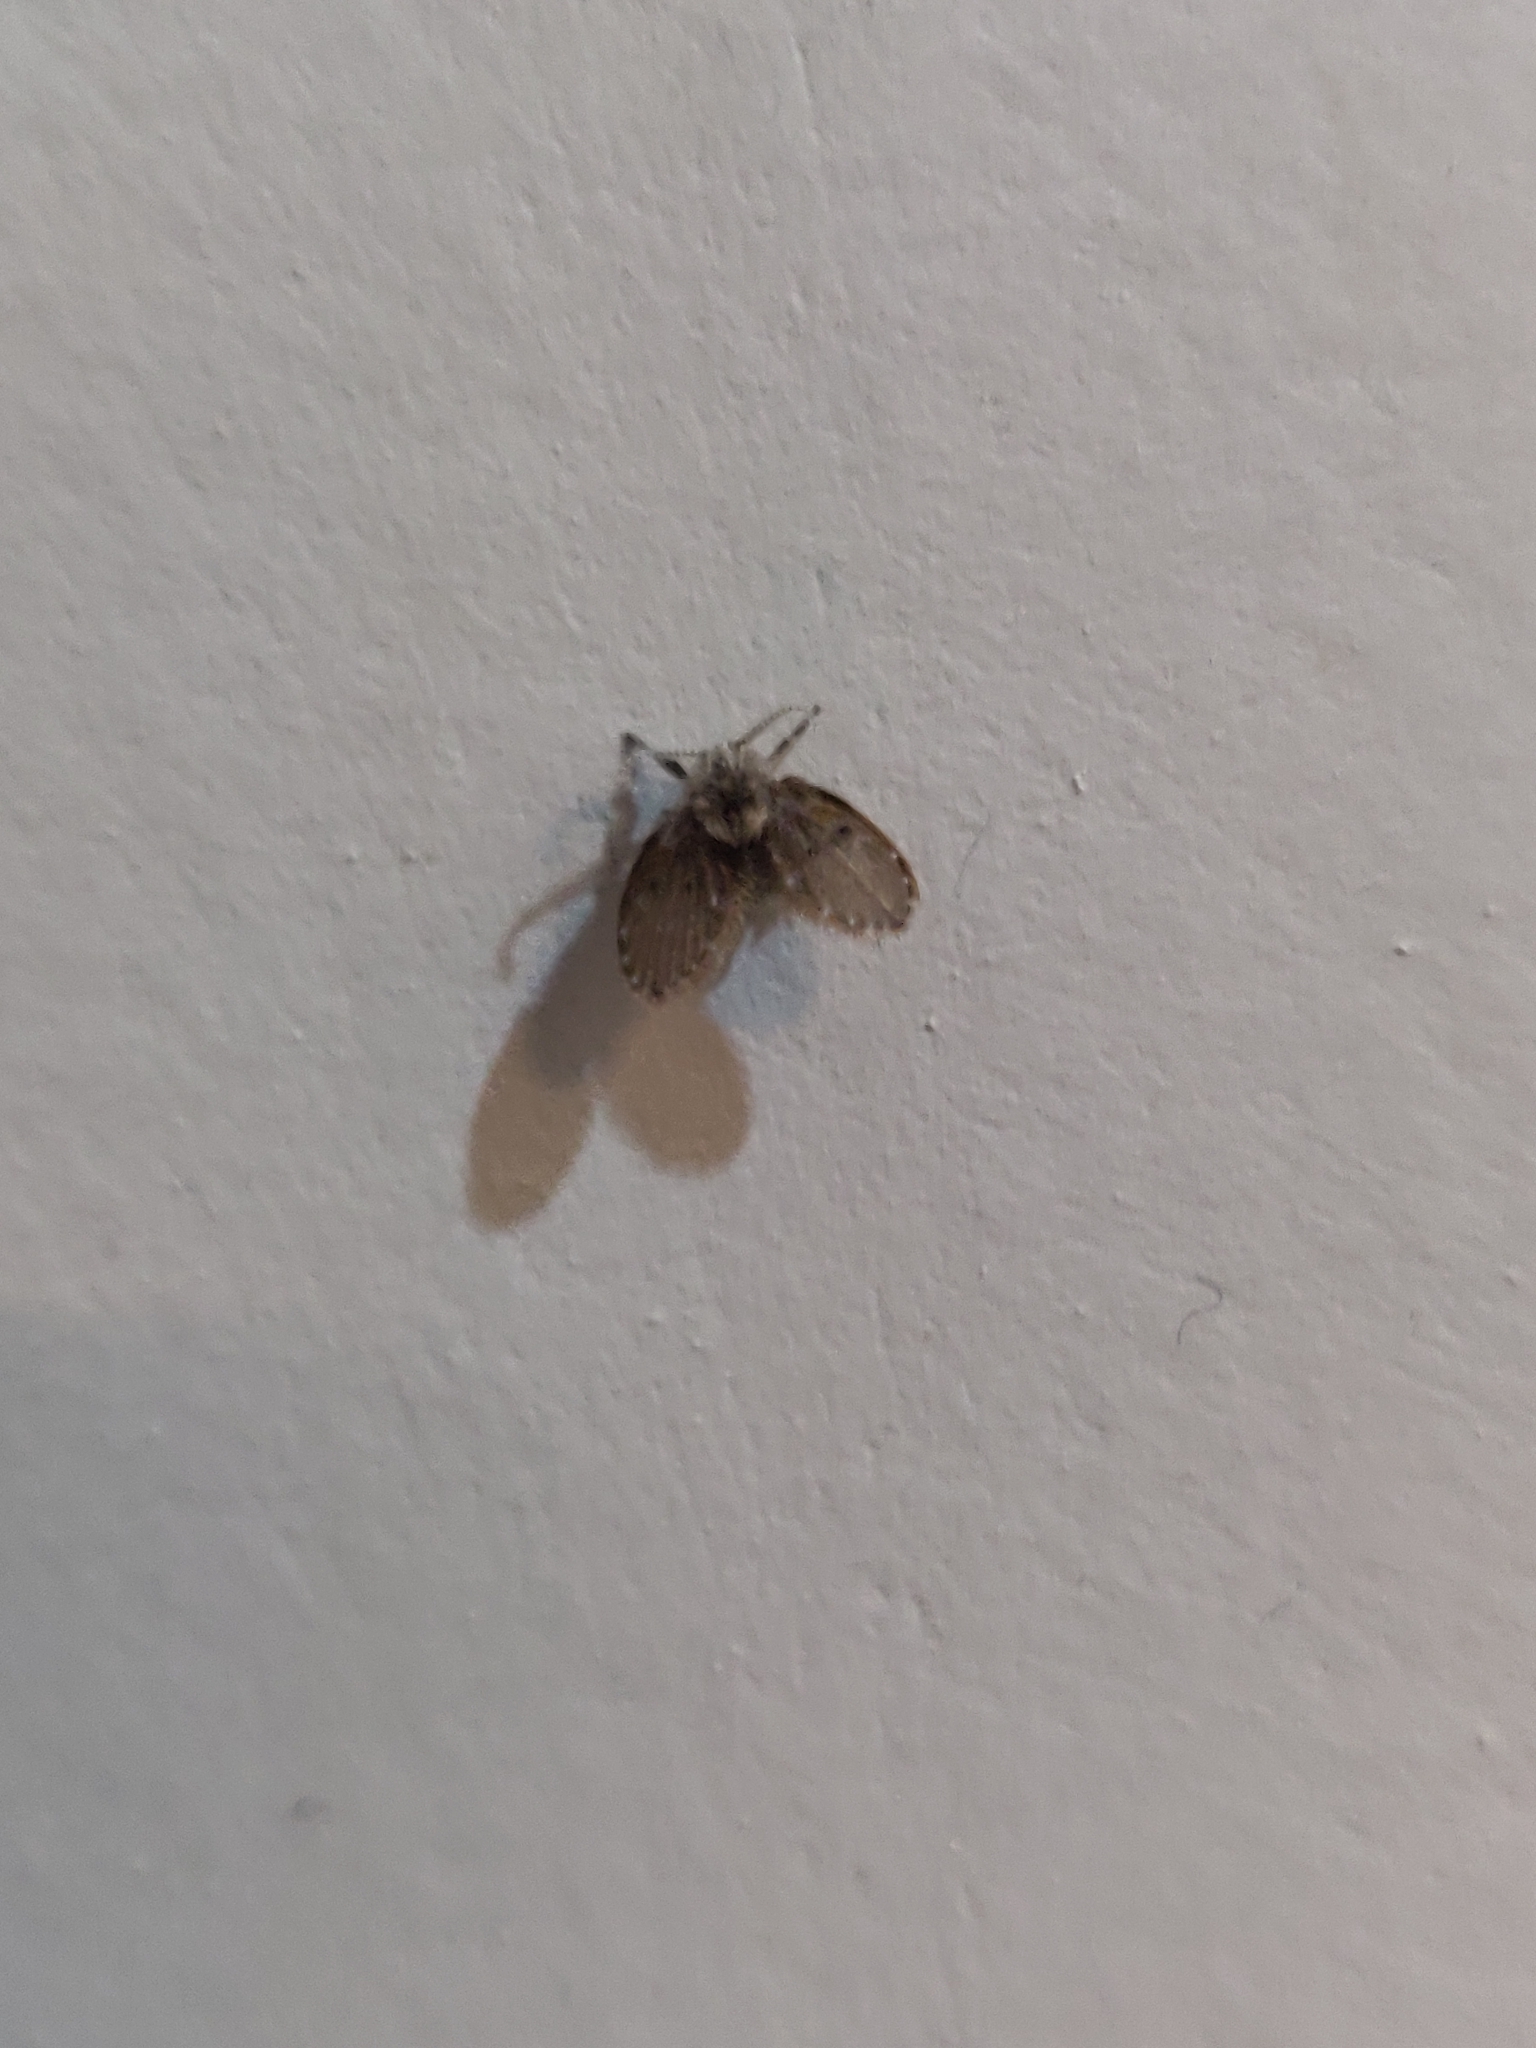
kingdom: Animalia
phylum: Arthropoda
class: Insecta
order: Diptera
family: Psychodidae
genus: Clogmia
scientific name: Clogmia albipunctatus
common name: White-spotted moth fly
